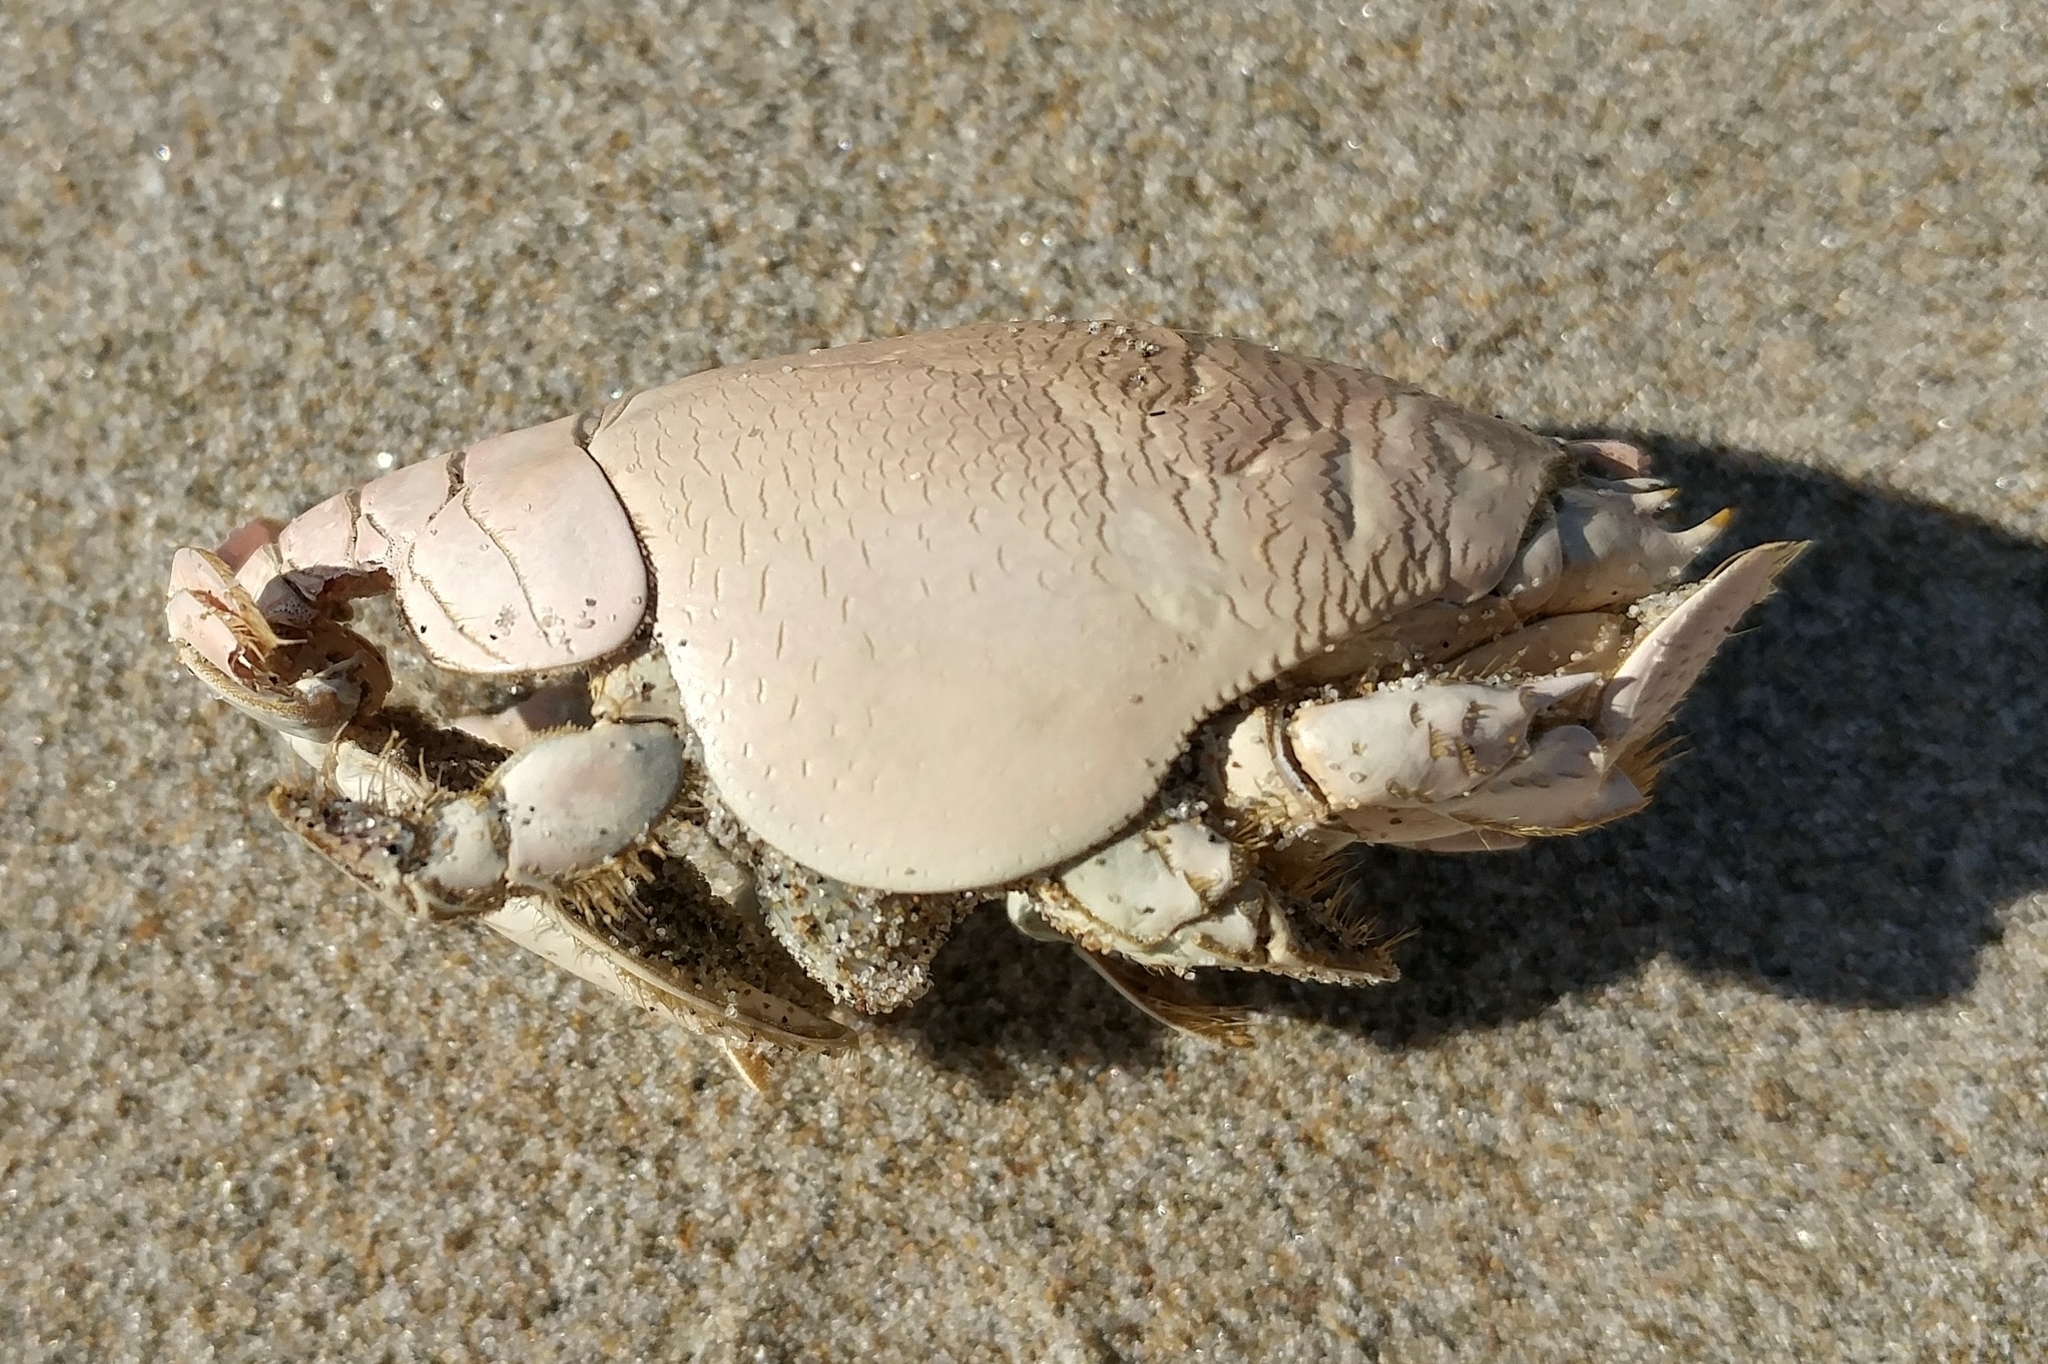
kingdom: Animalia
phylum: Arthropoda
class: Malacostraca
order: Decapoda
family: Hippidae
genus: Emerita
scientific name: Emerita analoga
